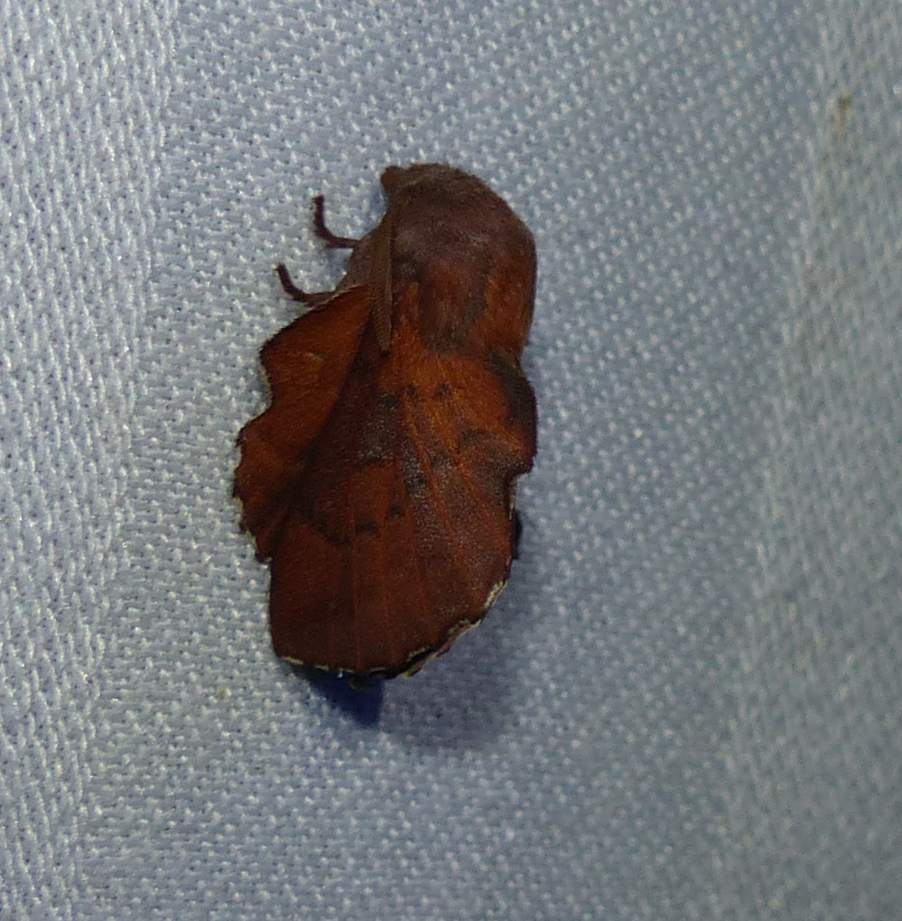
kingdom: Animalia
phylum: Arthropoda
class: Insecta
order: Lepidoptera
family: Lasiocampidae
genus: Phyllodesma
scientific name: Phyllodesma americana
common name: American lappet moth
